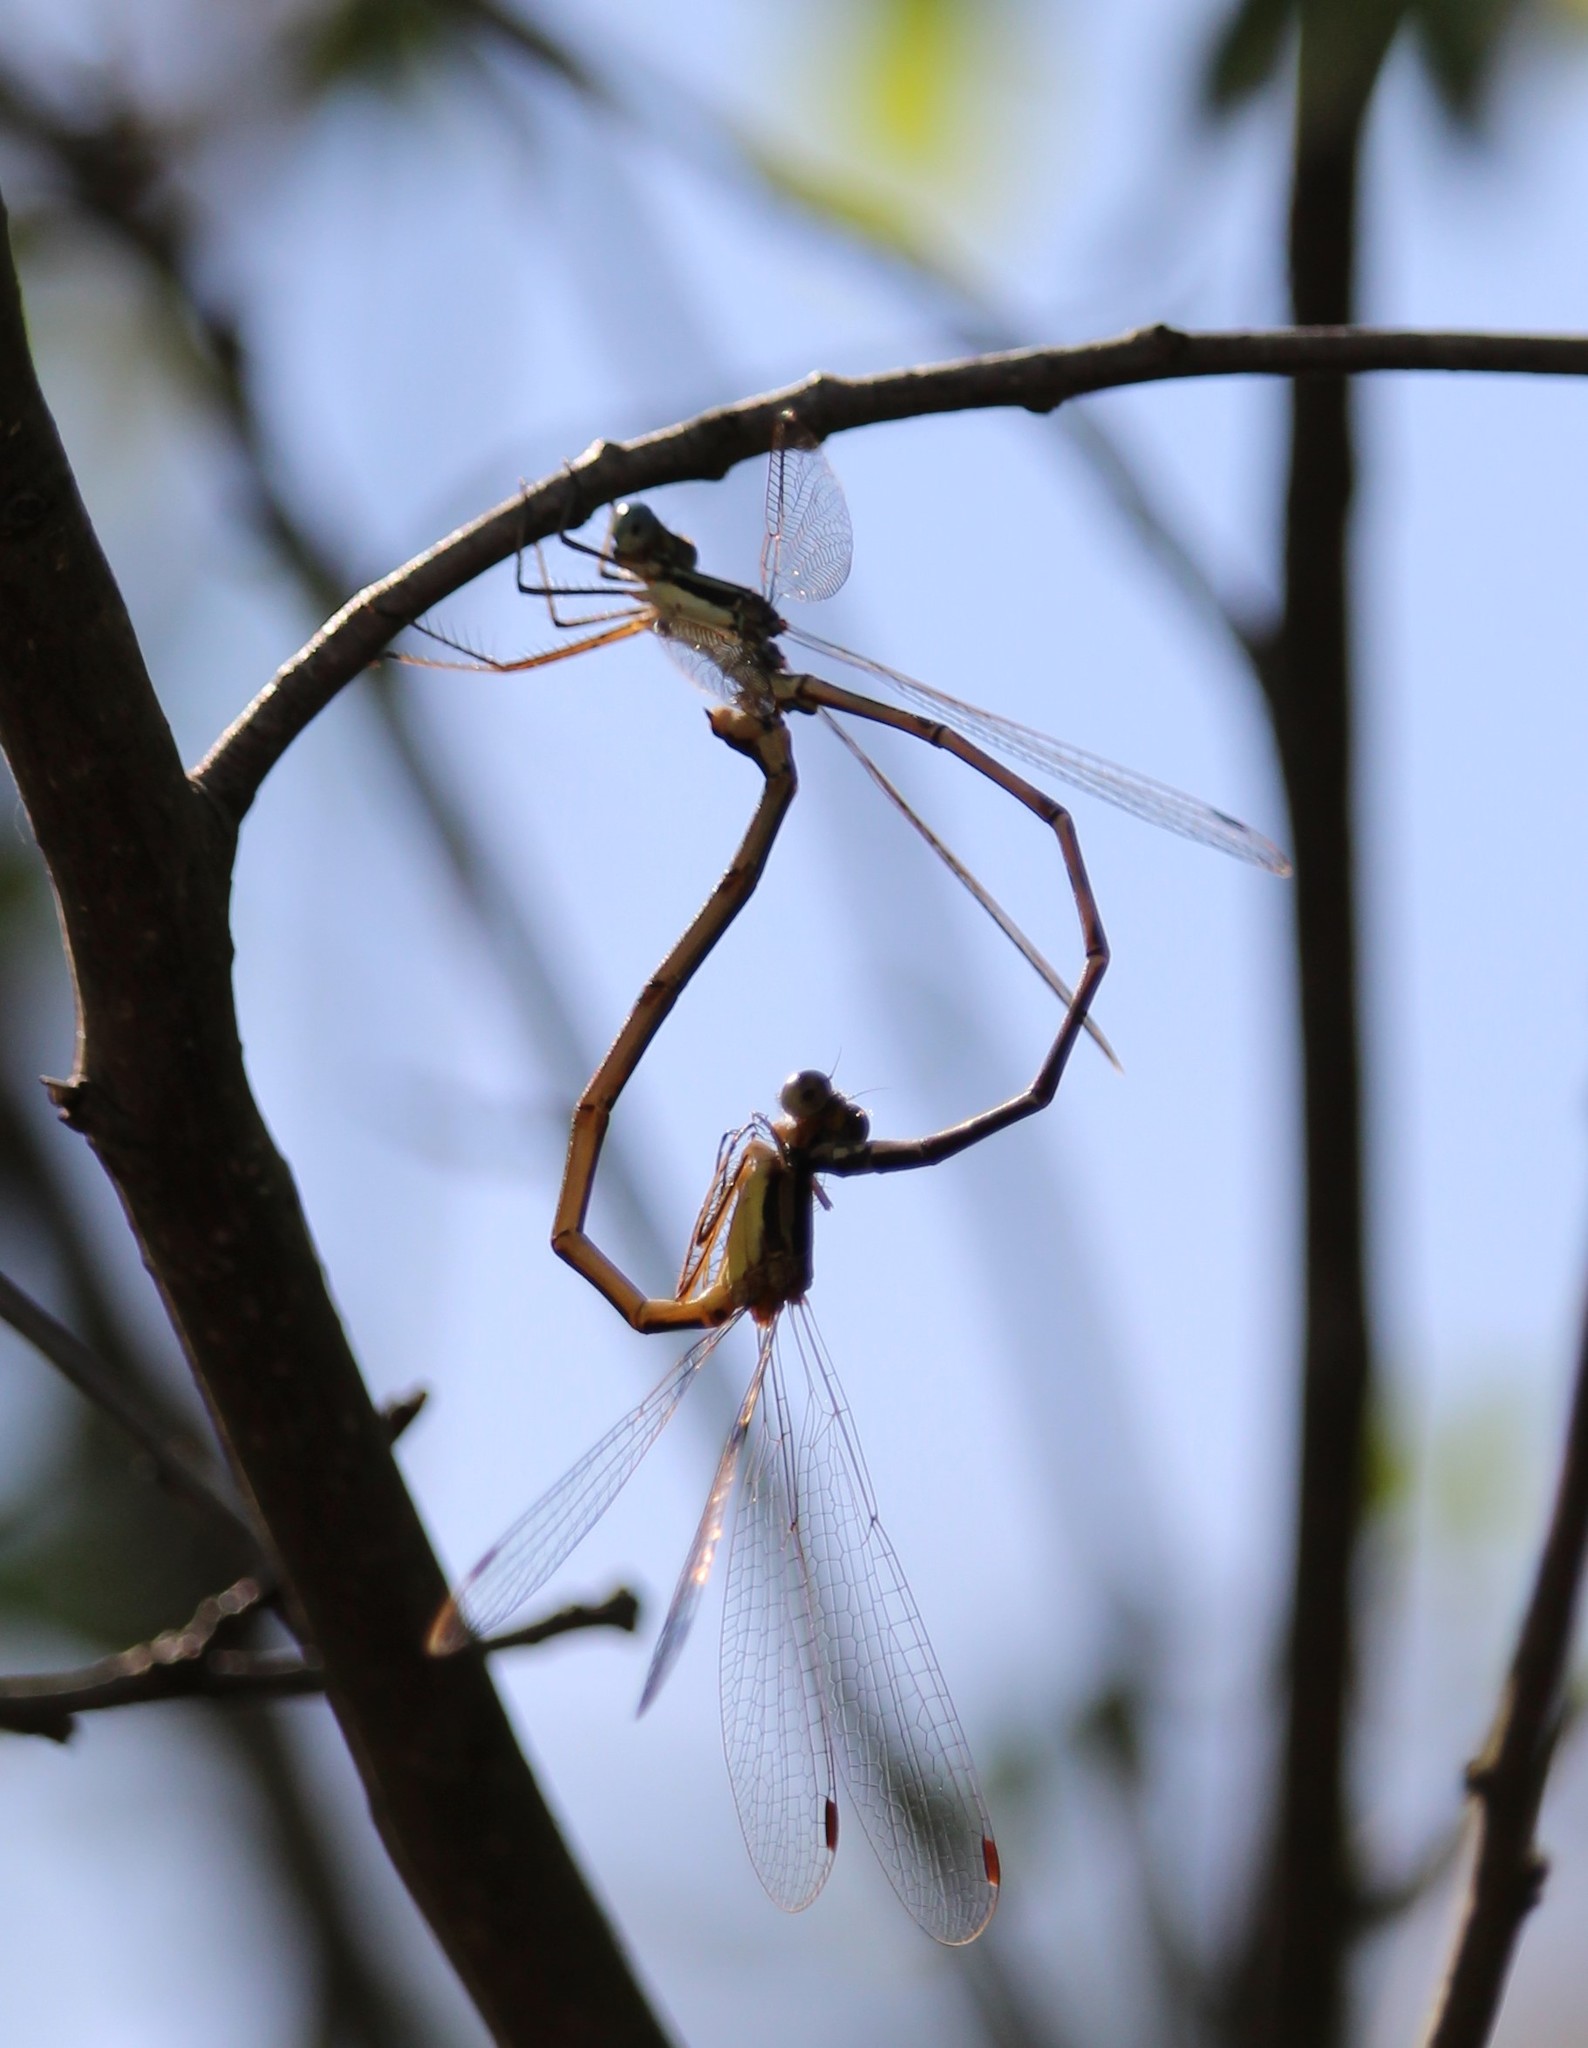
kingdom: Animalia
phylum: Arthropoda
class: Insecta
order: Odonata
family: Lestidae
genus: Lestes
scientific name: Lestes rectangularis
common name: Slender spreadwing
